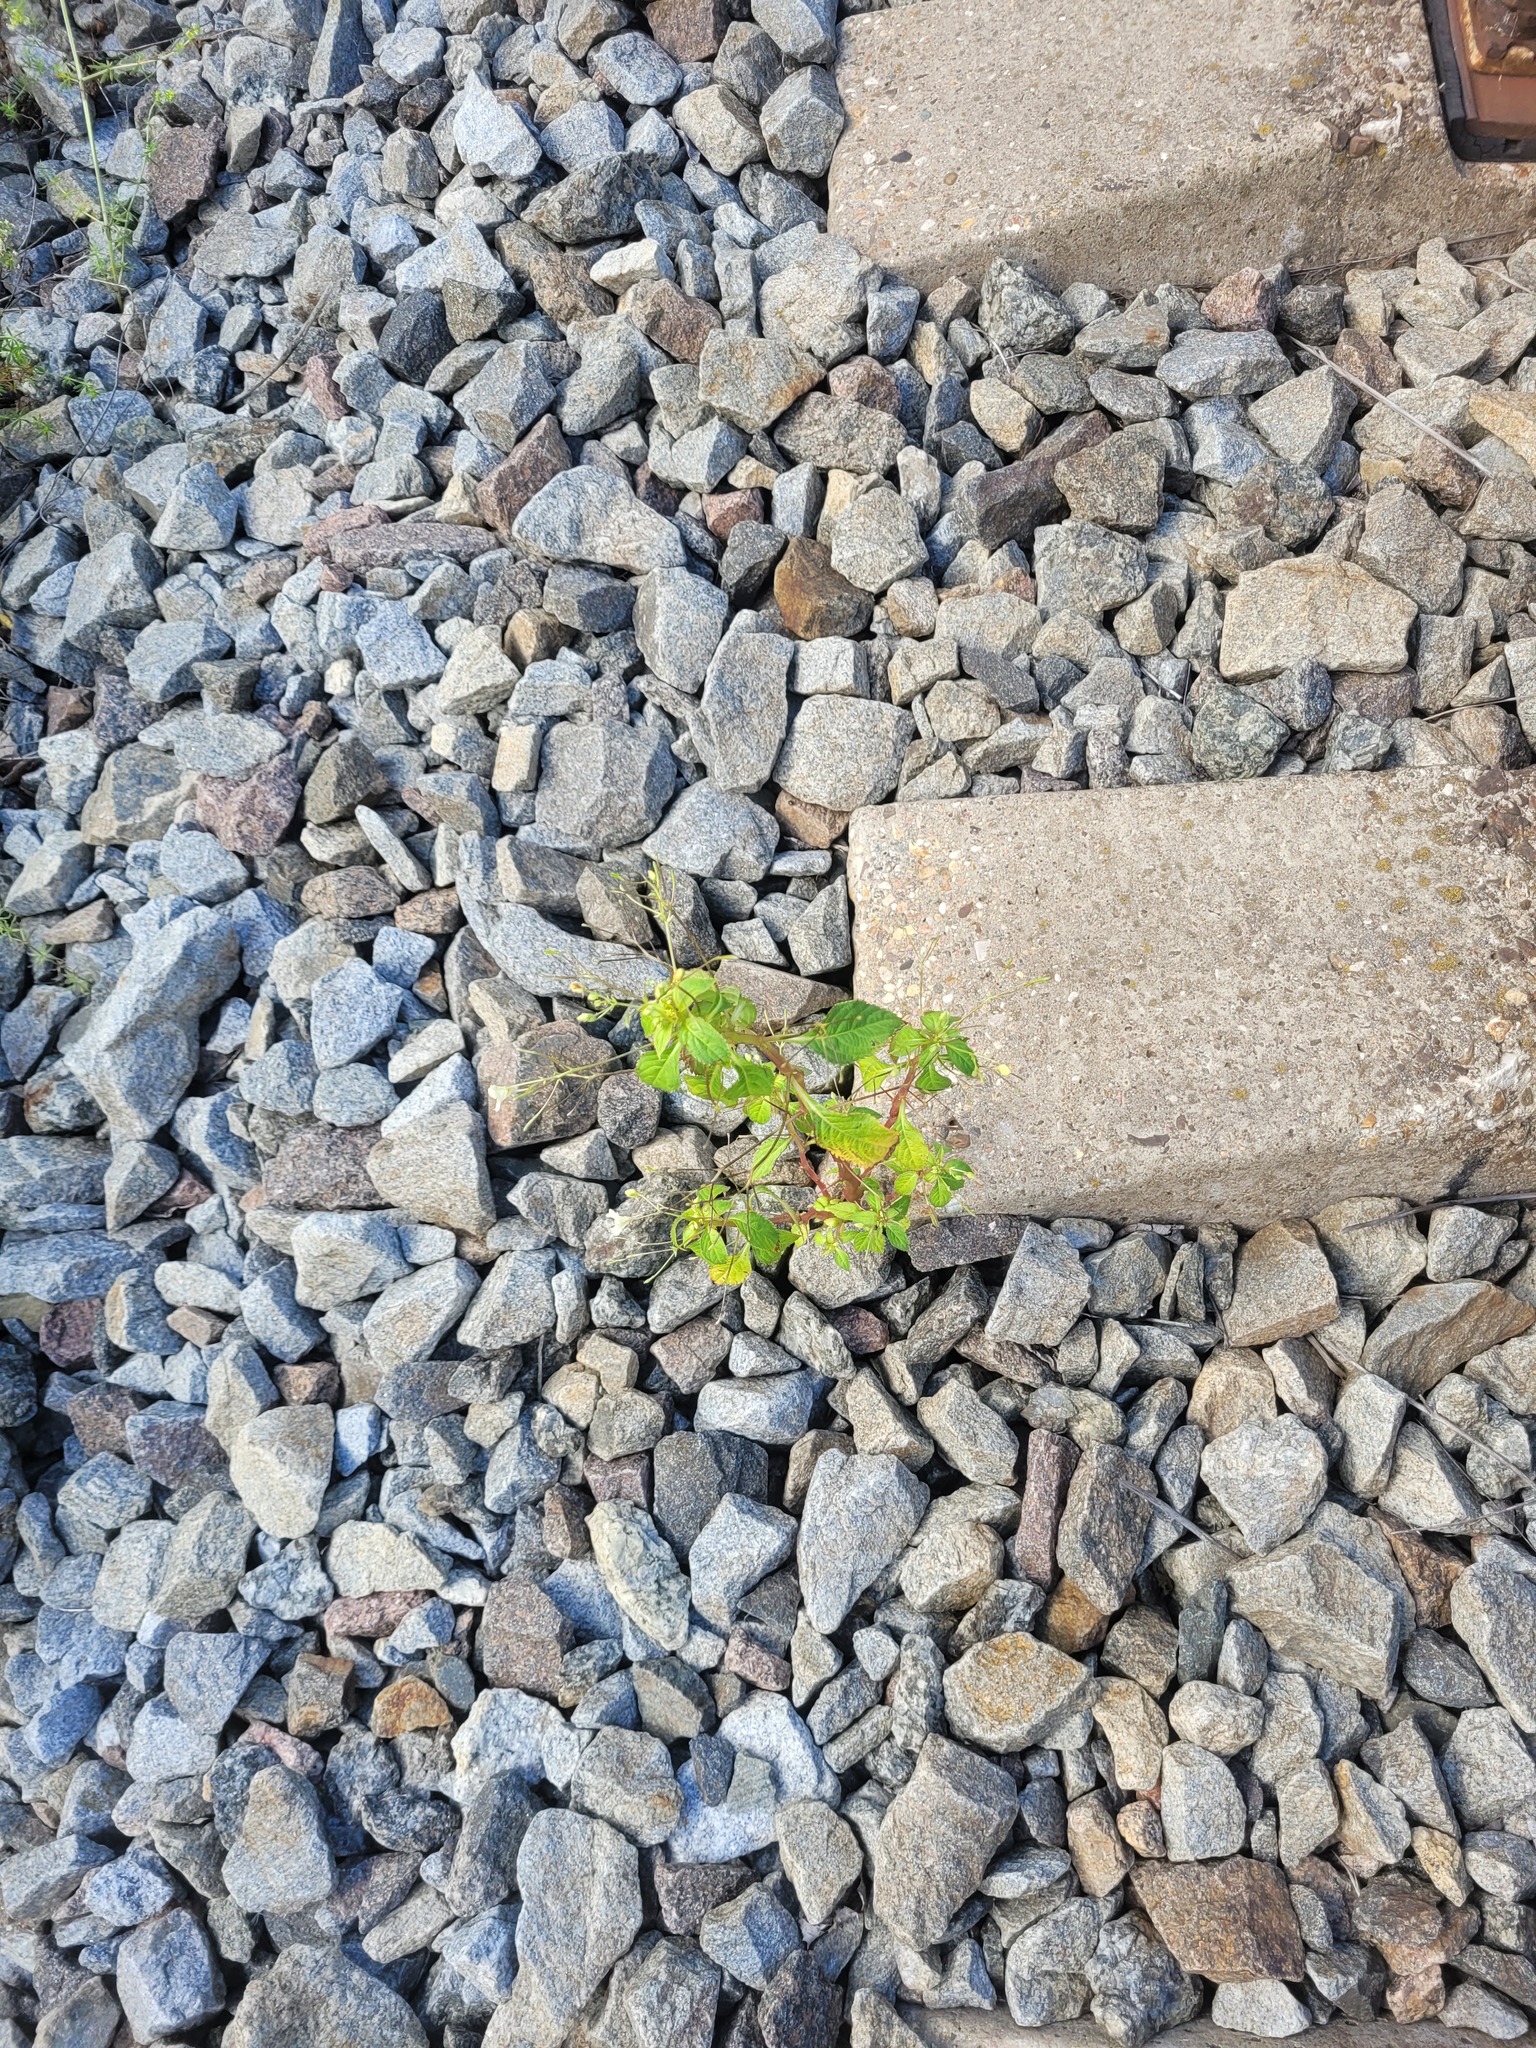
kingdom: Plantae
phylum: Tracheophyta
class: Magnoliopsida
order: Ericales
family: Balsaminaceae
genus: Impatiens
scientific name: Impatiens parviflora
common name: Small balsam
